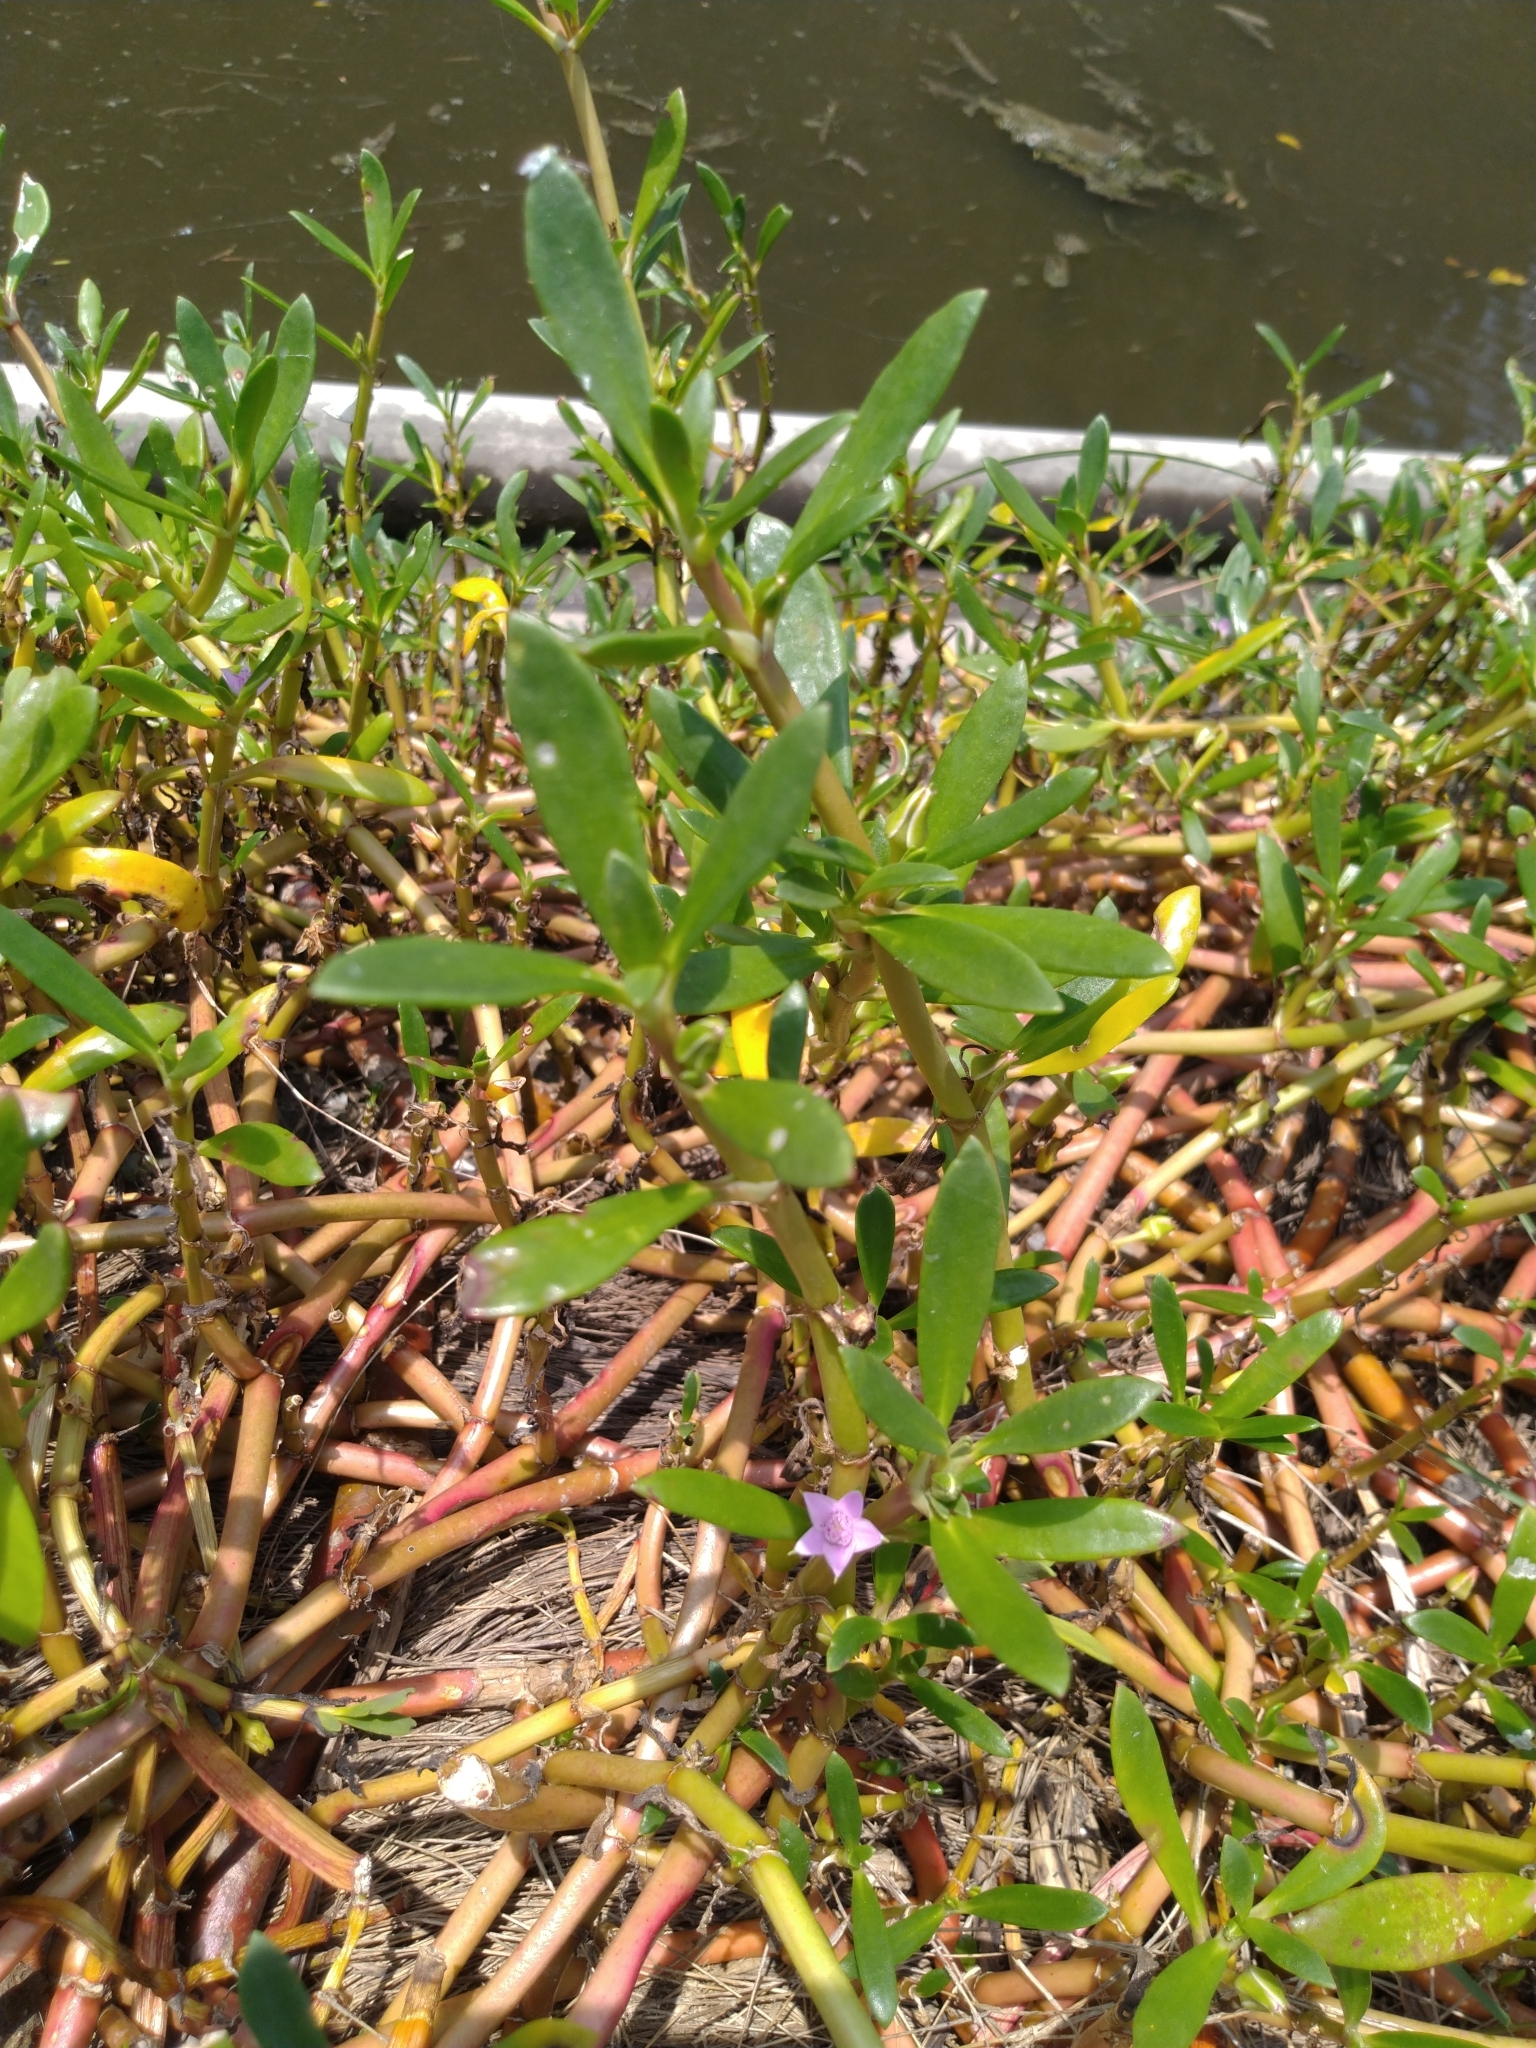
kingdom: Plantae
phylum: Tracheophyta
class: Magnoliopsida
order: Caryophyllales
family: Aizoaceae
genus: Sesuvium
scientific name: Sesuvium portulacastrum
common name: Sea-purslane
